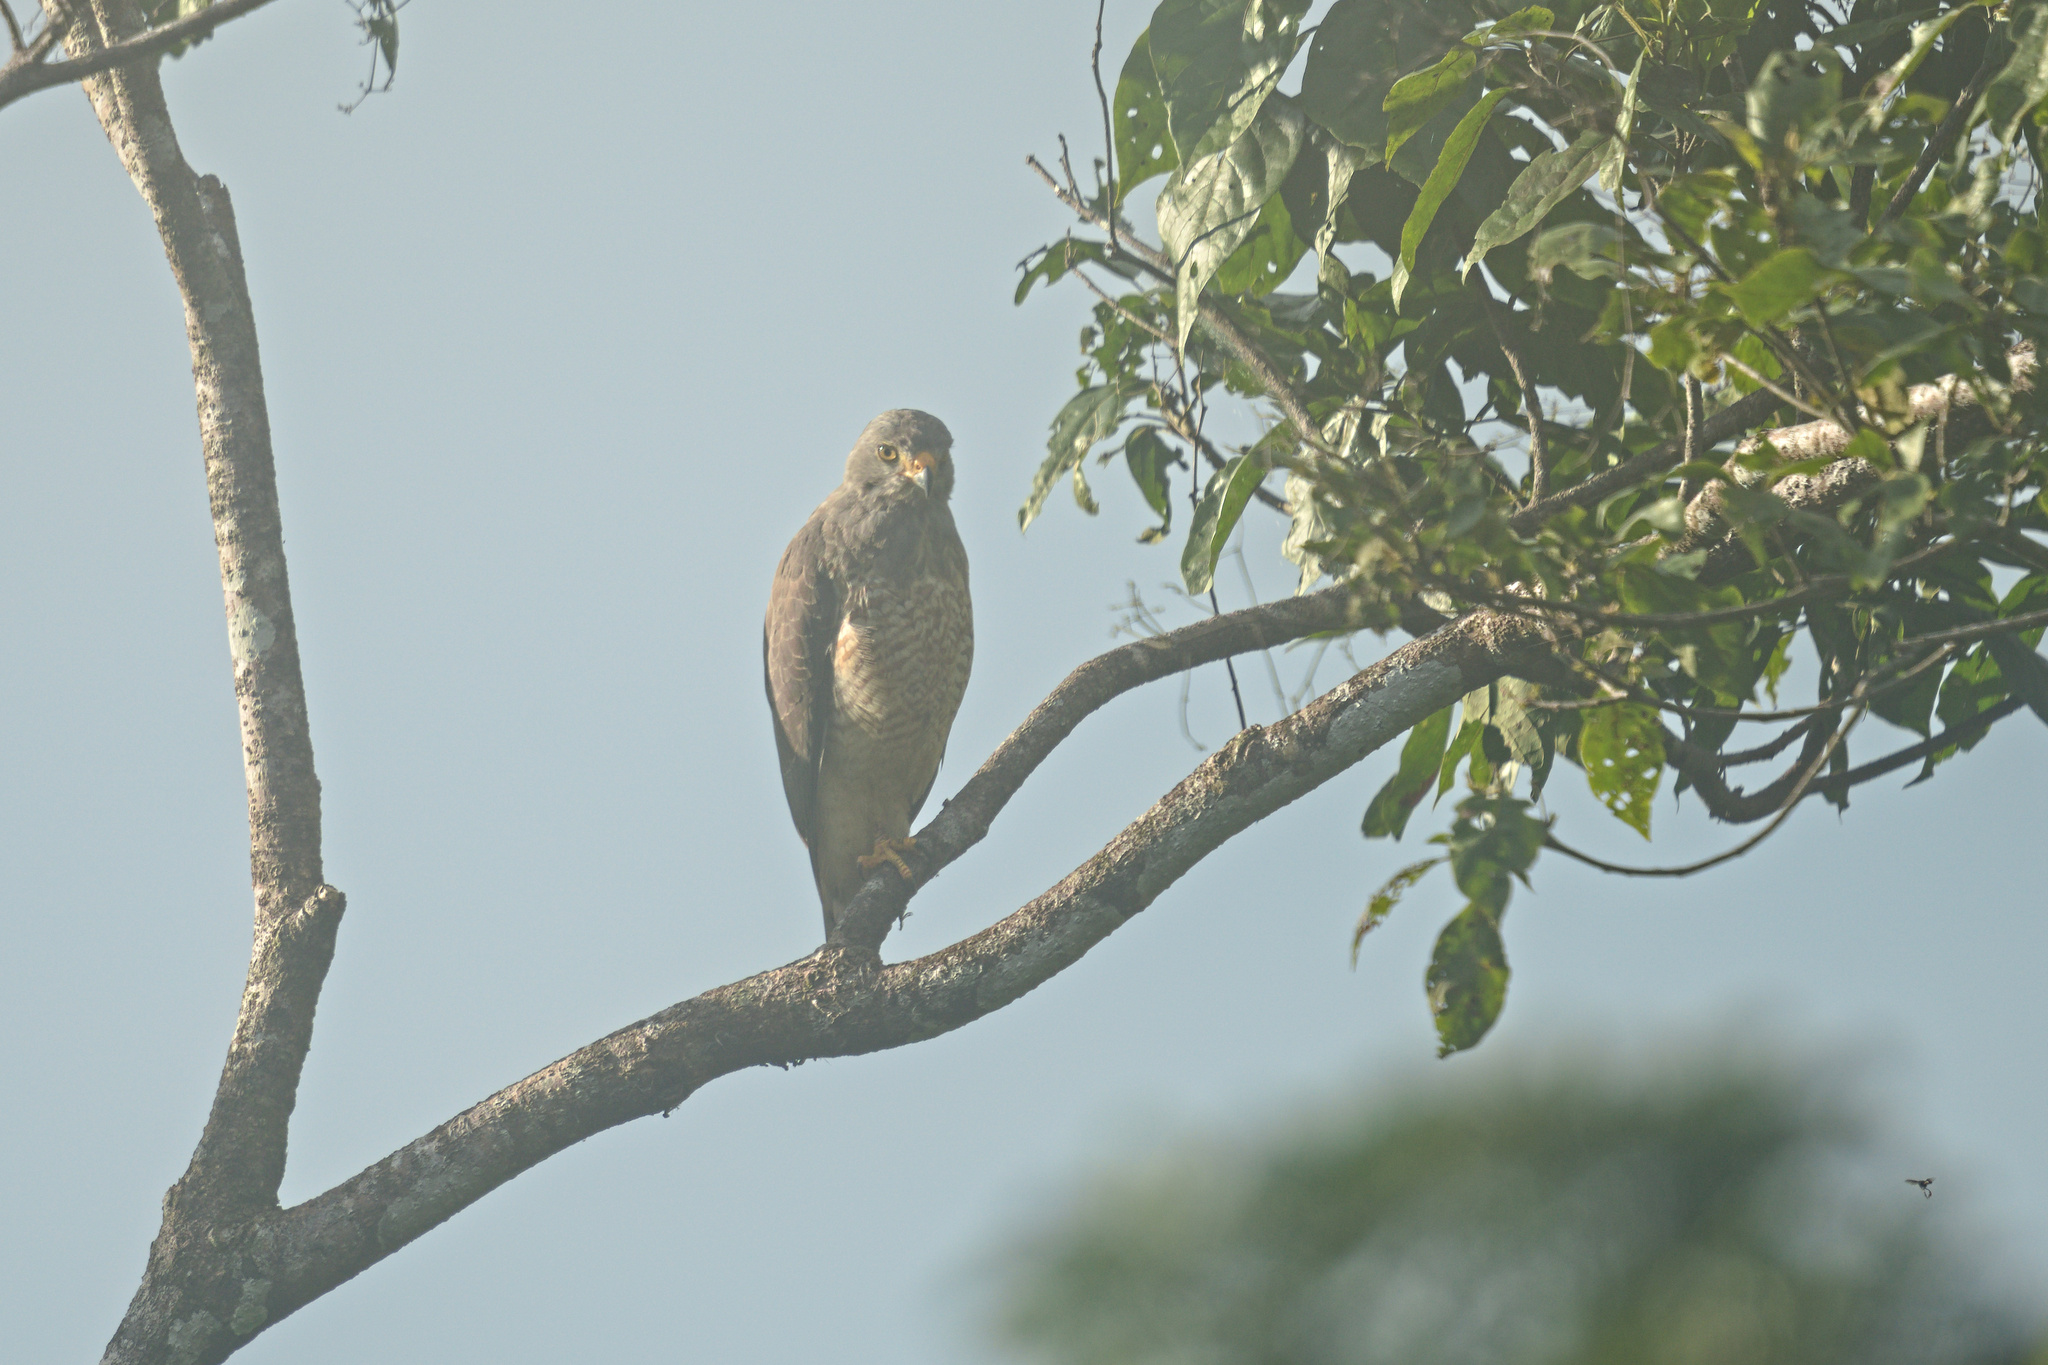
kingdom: Animalia
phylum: Chordata
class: Aves
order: Accipitriformes
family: Accipitridae
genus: Rupornis
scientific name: Rupornis magnirostris
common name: Roadside hawk
